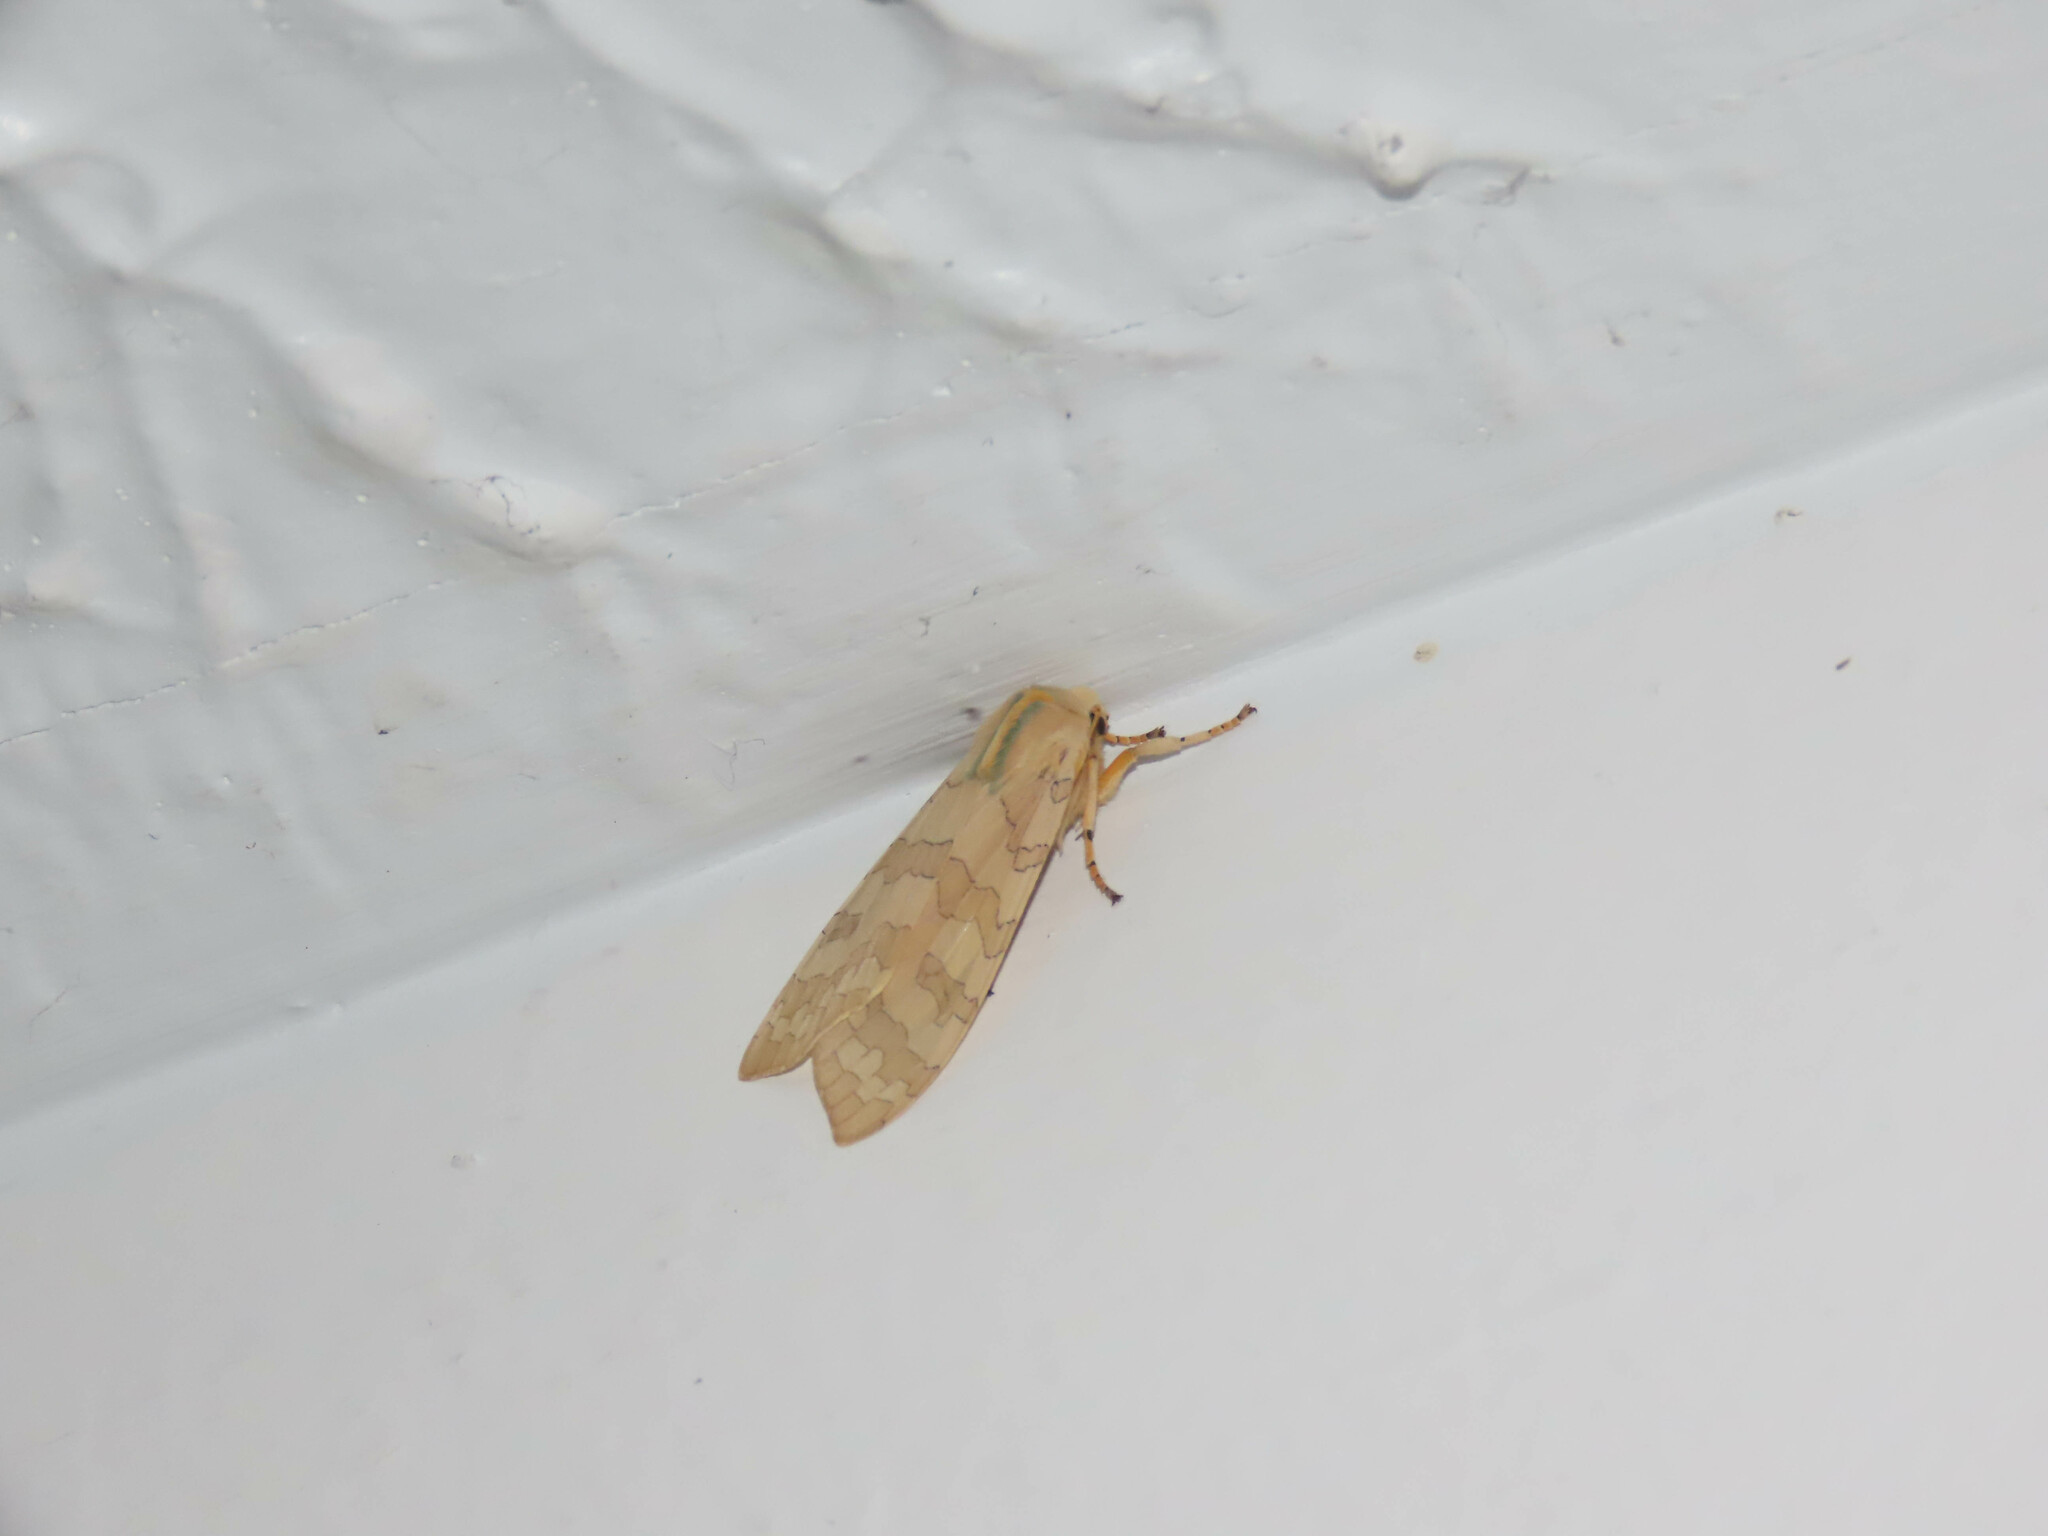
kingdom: Animalia
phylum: Arthropoda
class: Insecta
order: Lepidoptera
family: Erebidae
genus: Halysidota
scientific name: Halysidota
